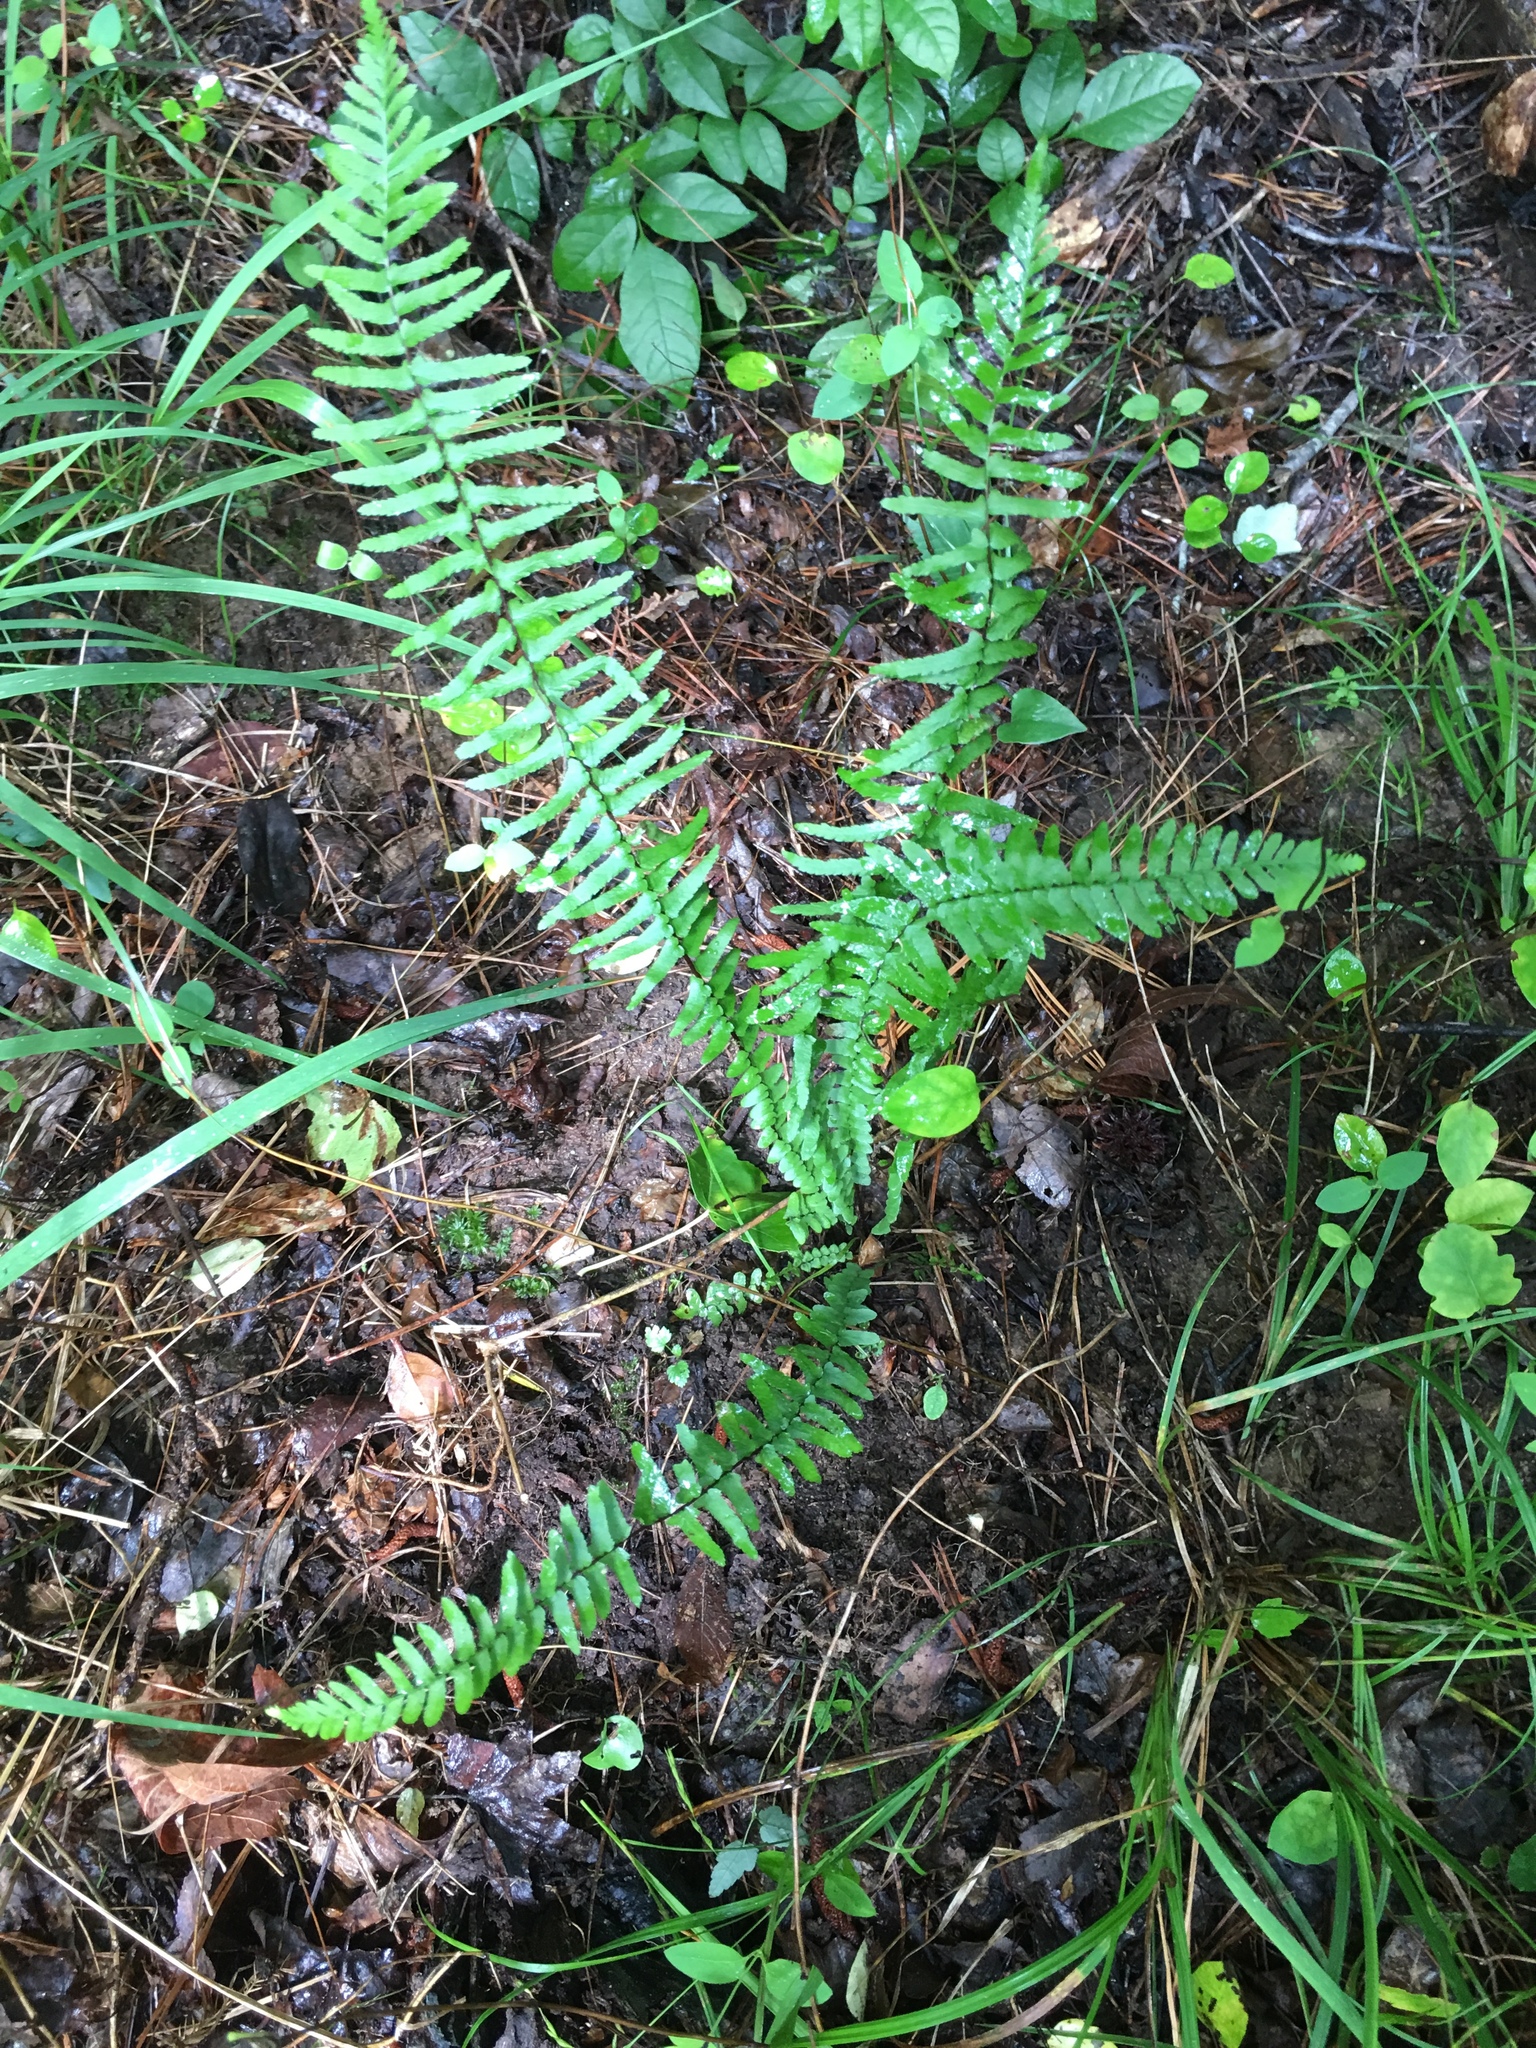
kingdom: Plantae
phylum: Tracheophyta
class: Polypodiopsida
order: Polypodiales
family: Aspleniaceae
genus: Asplenium
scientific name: Asplenium platyneuron
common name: Ebony spleenwort
